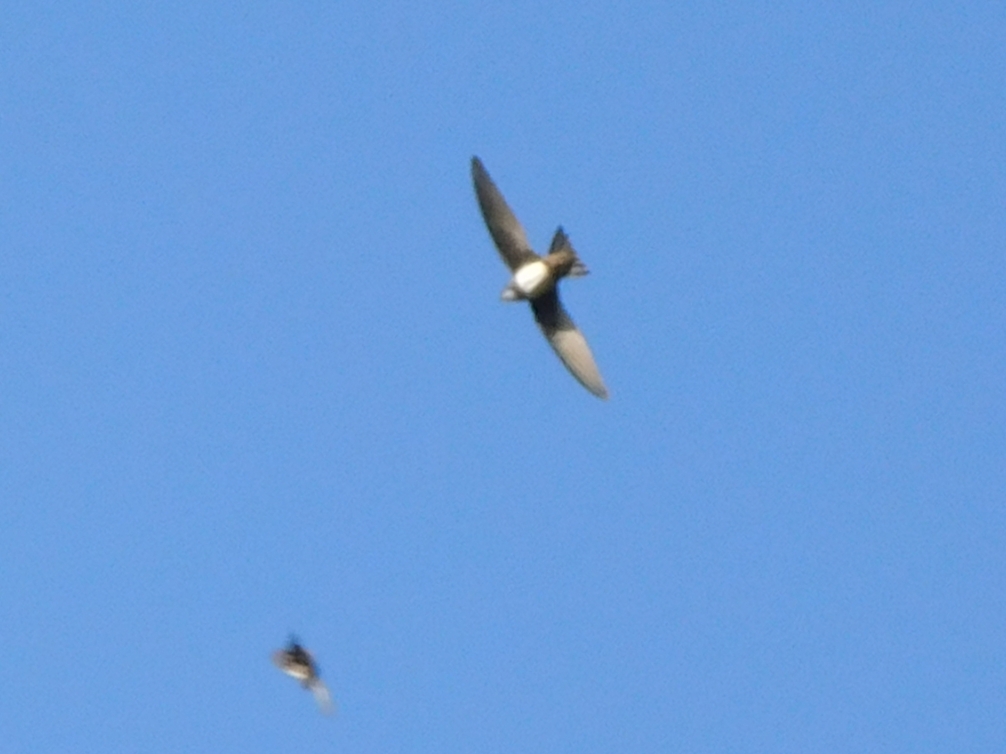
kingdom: Animalia
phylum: Chordata
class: Aves
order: Apodiformes
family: Apodidae
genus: Tachymarptis
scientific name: Tachymarptis melba
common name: Alpine swift
